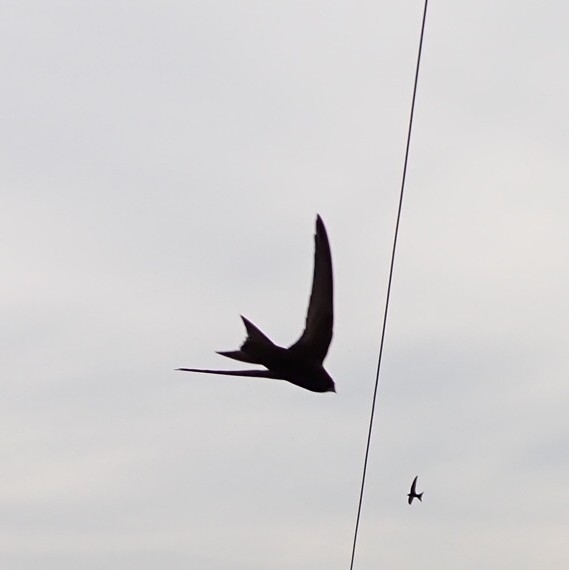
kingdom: Animalia
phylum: Chordata
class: Aves
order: Apodiformes
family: Apodidae
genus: Apus
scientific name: Apus apus
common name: Common swift
